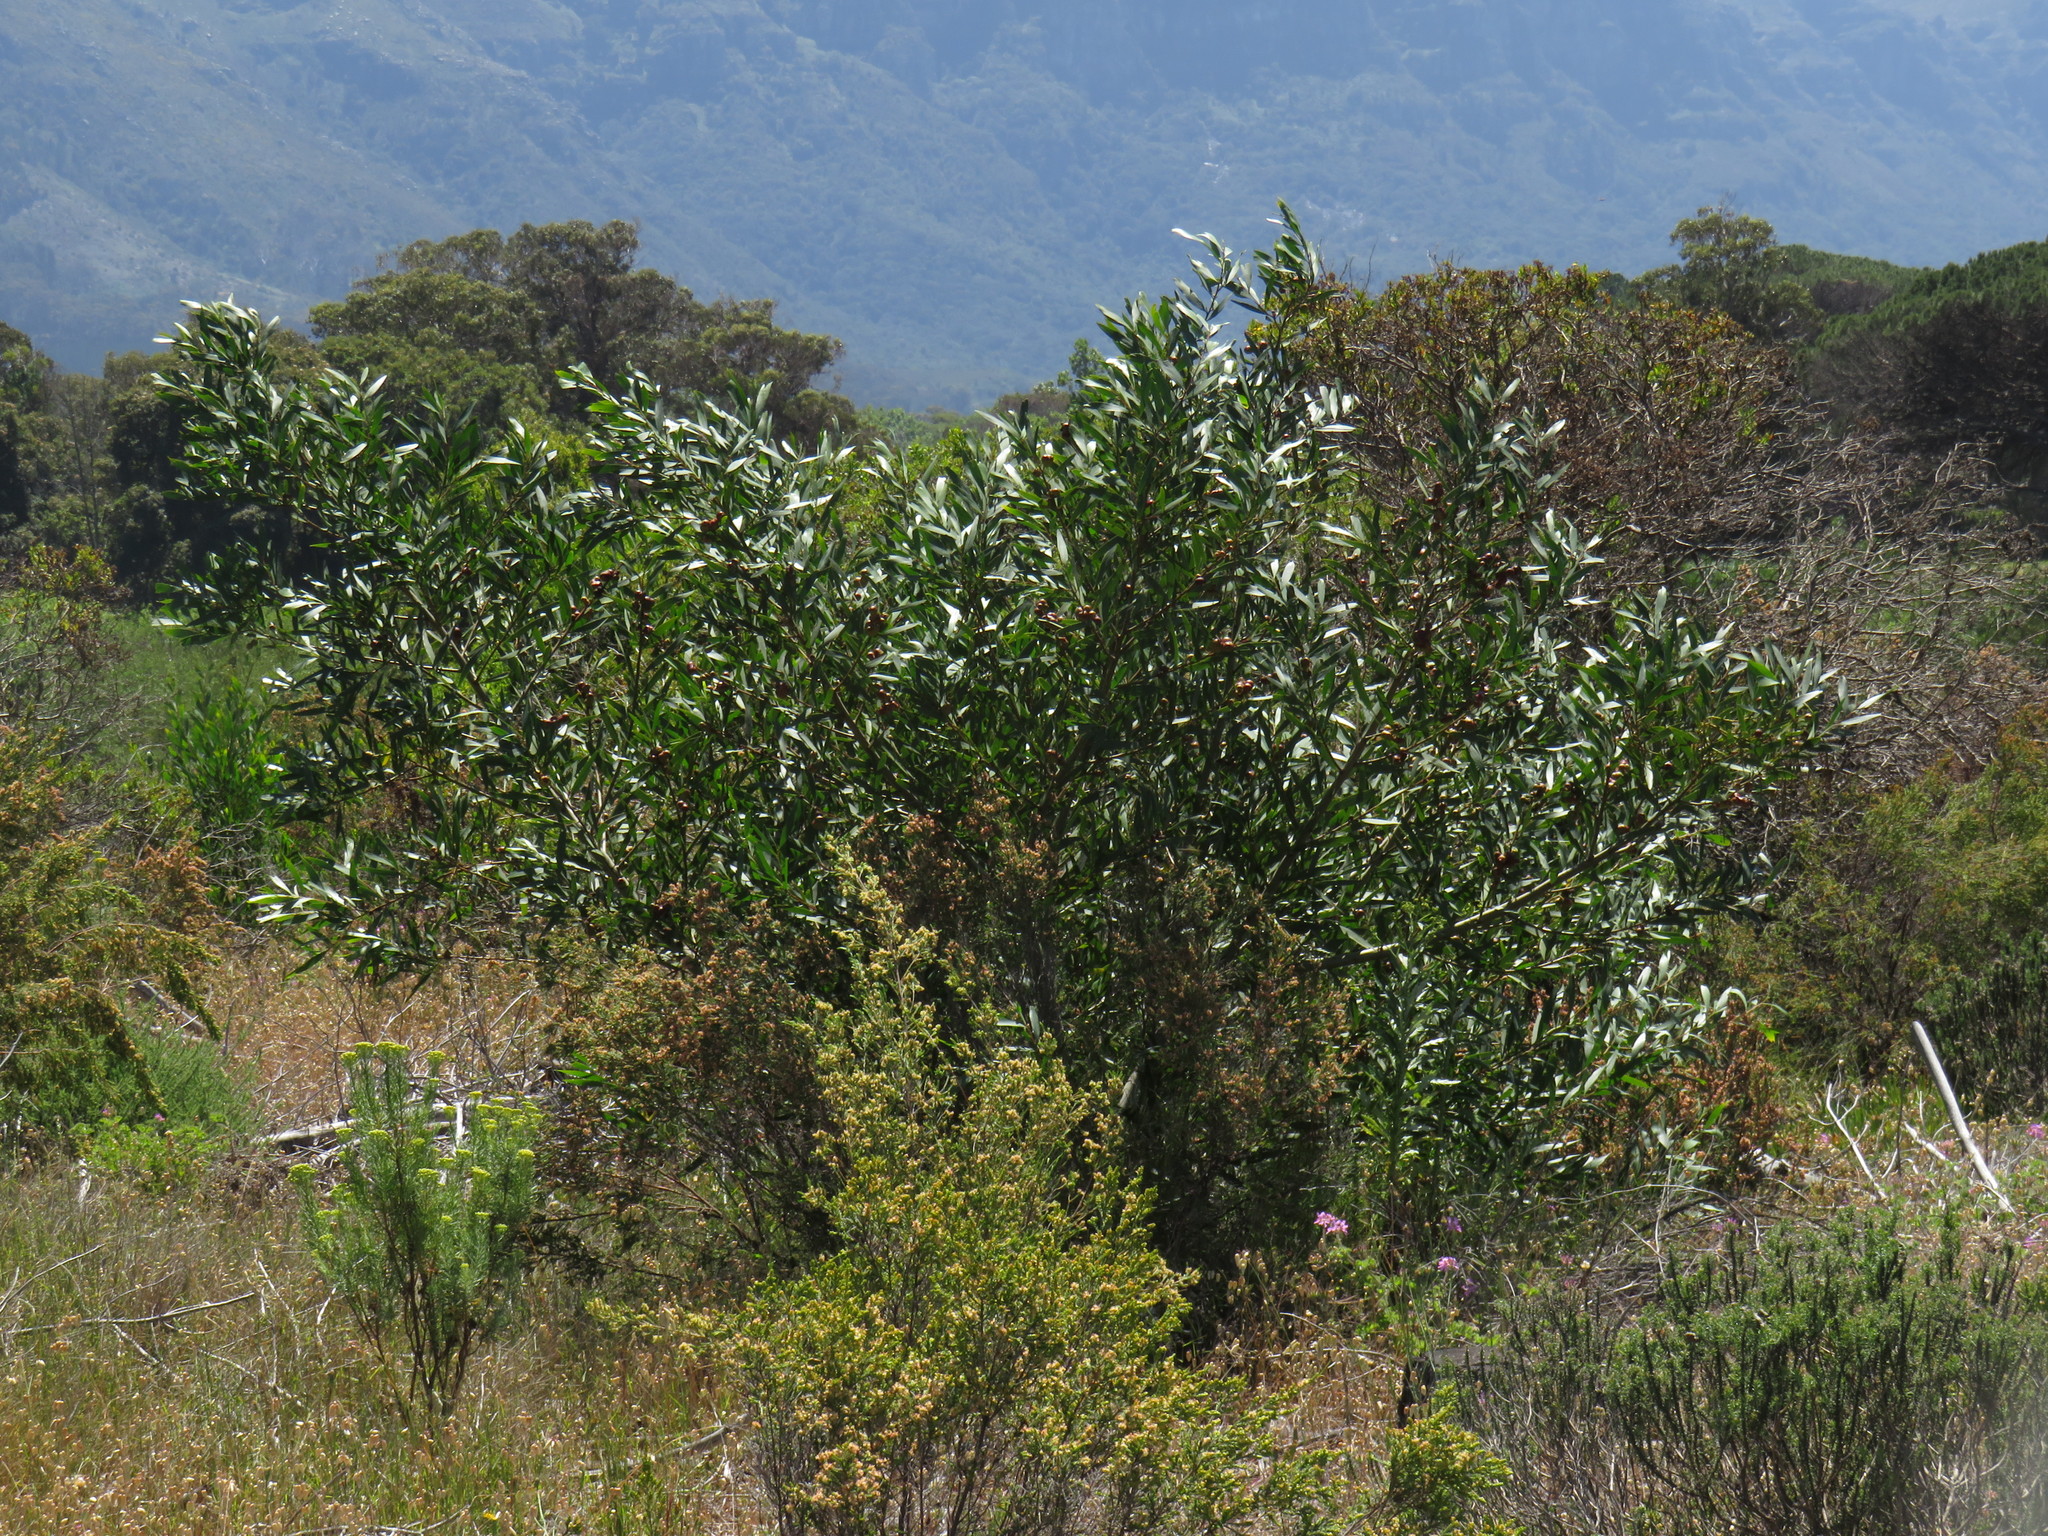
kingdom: Plantae
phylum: Tracheophyta
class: Magnoliopsida
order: Fabales
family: Fabaceae
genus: Acacia
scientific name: Acacia longifolia
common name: Sydney golden wattle
